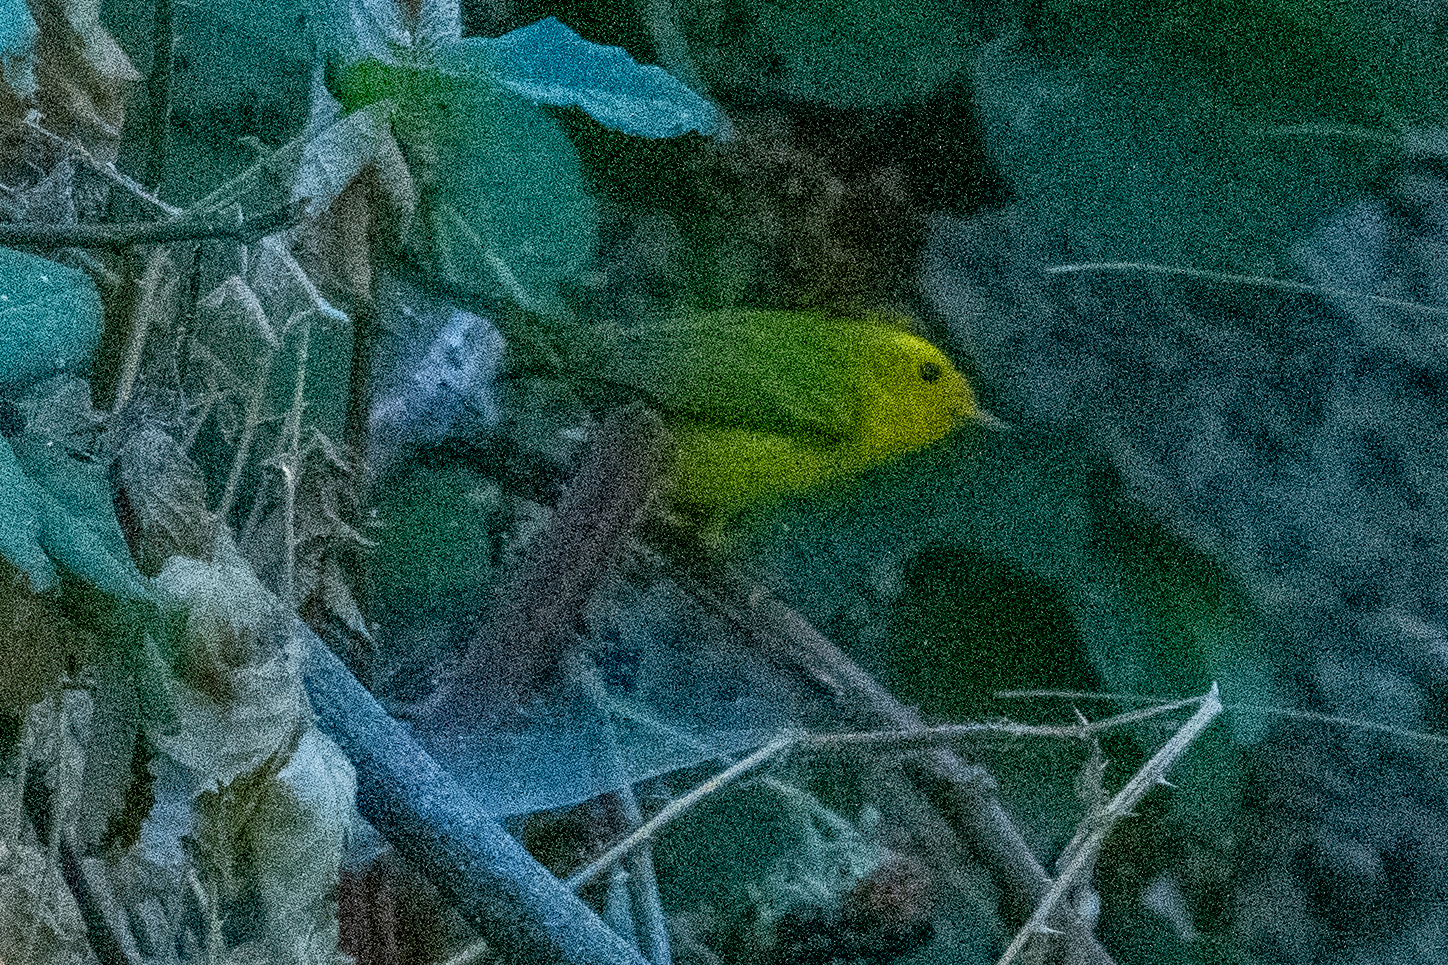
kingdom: Animalia
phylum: Chordata
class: Aves
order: Passeriformes
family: Parulidae
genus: Cardellina
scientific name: Cardellina pusilla
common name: Wilson's warbler
